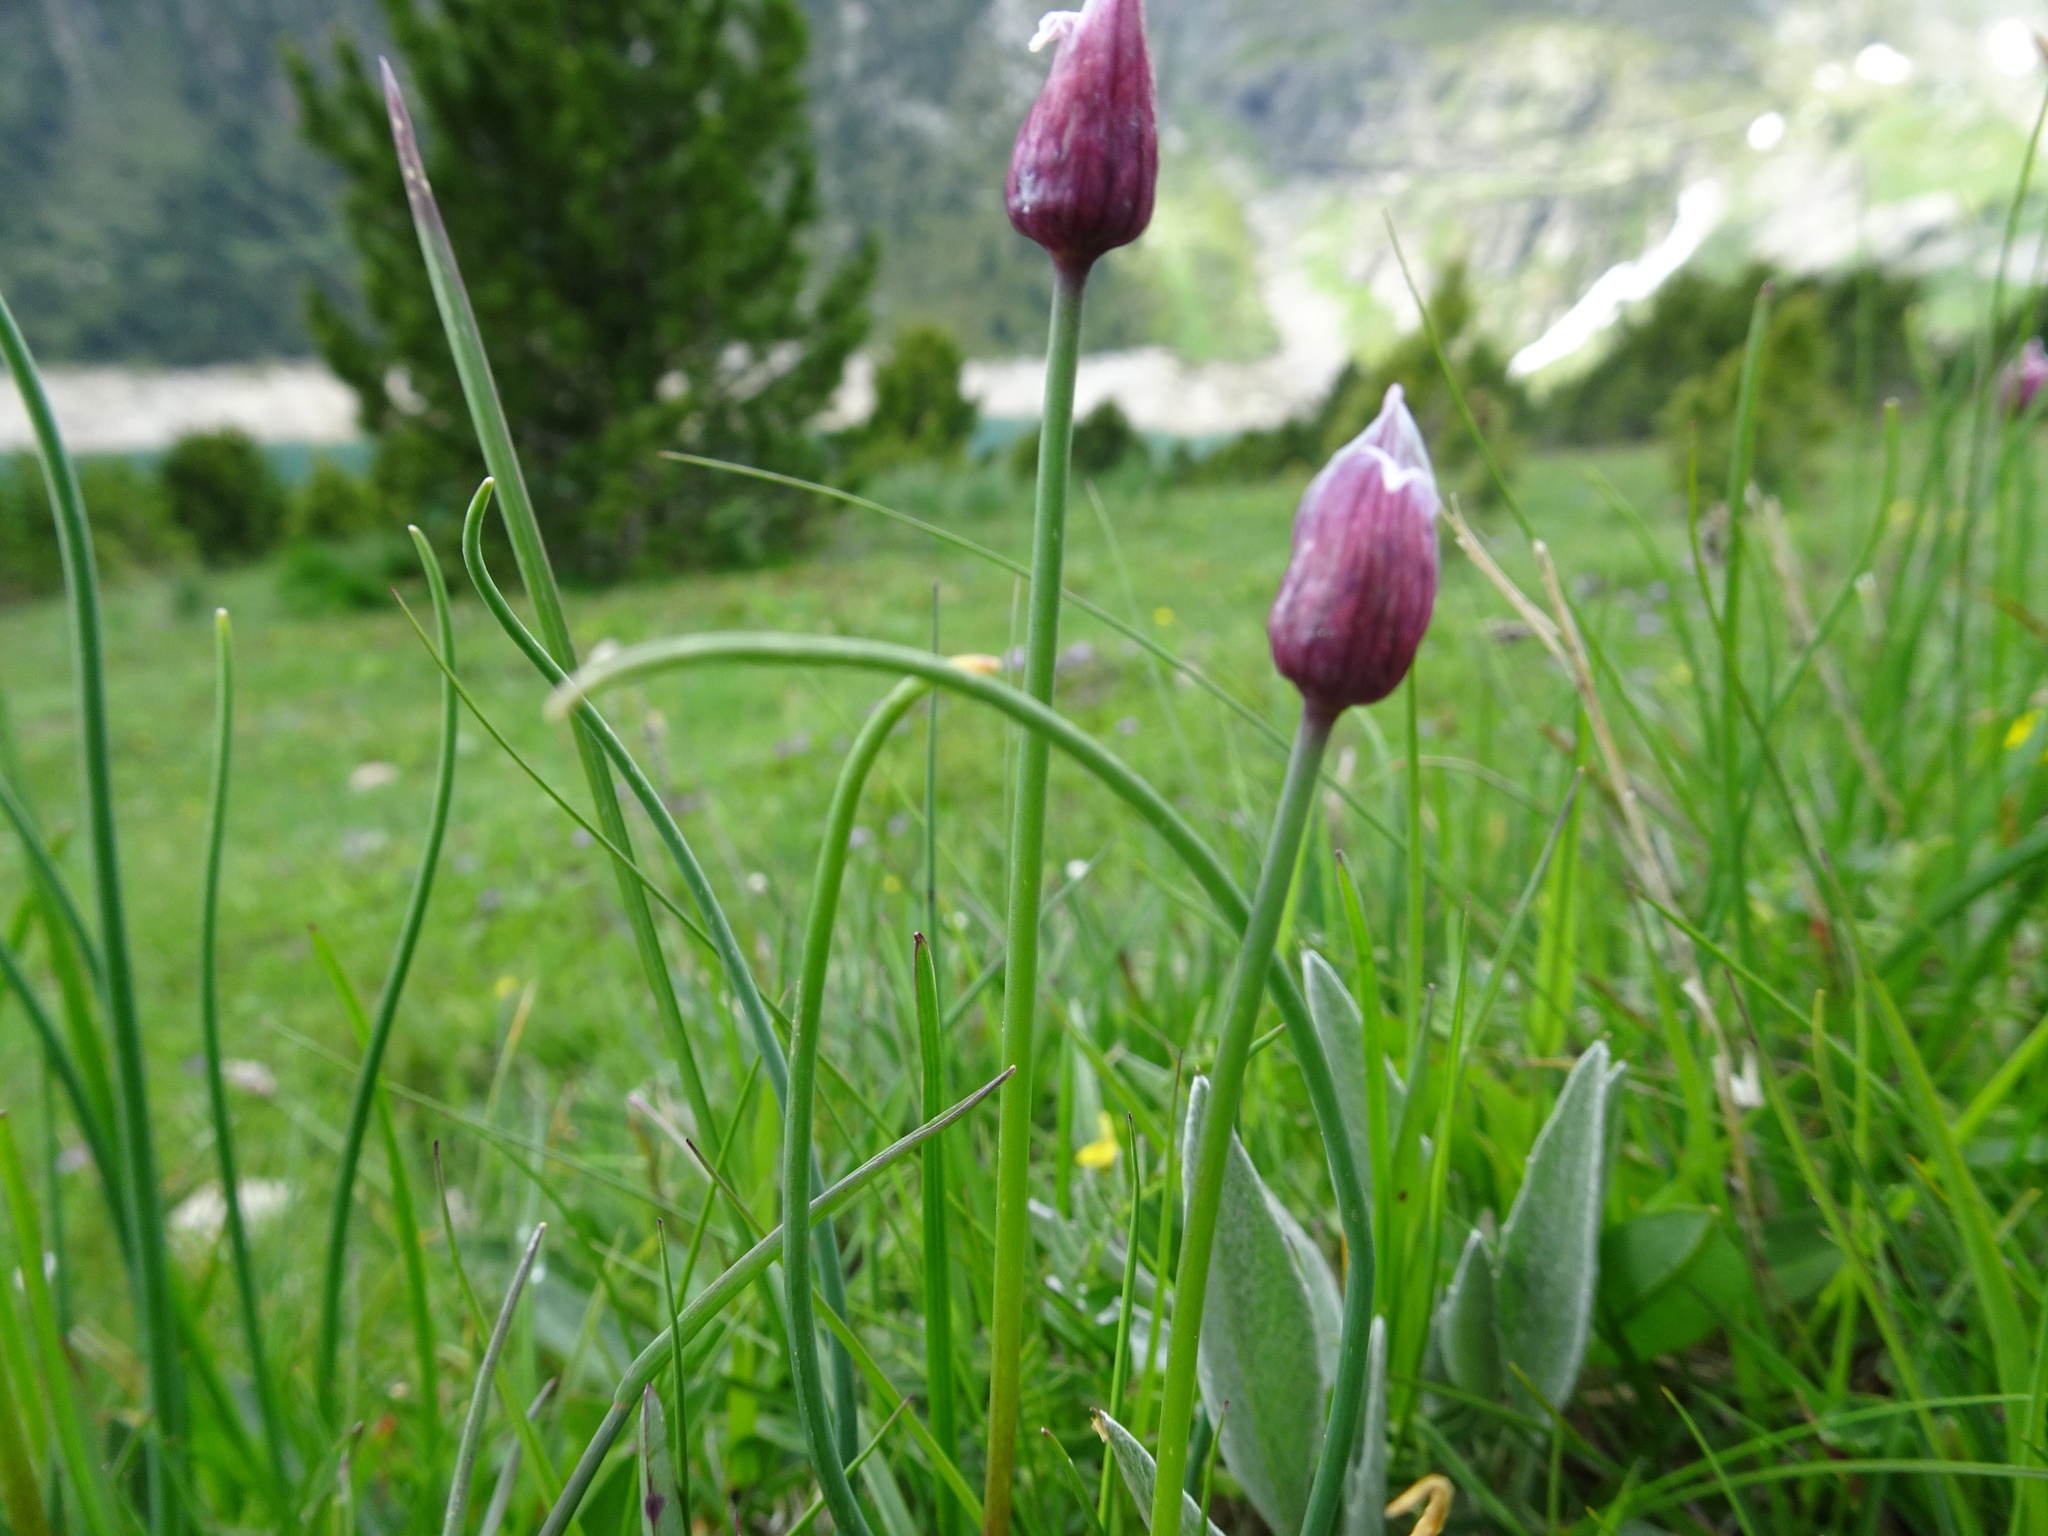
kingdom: Plantae
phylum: Tracheophyta
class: Liliopsida
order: Asparagales
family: Amaryllidaceae
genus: Allium
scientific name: Allium schoenoprasum
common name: Chives
